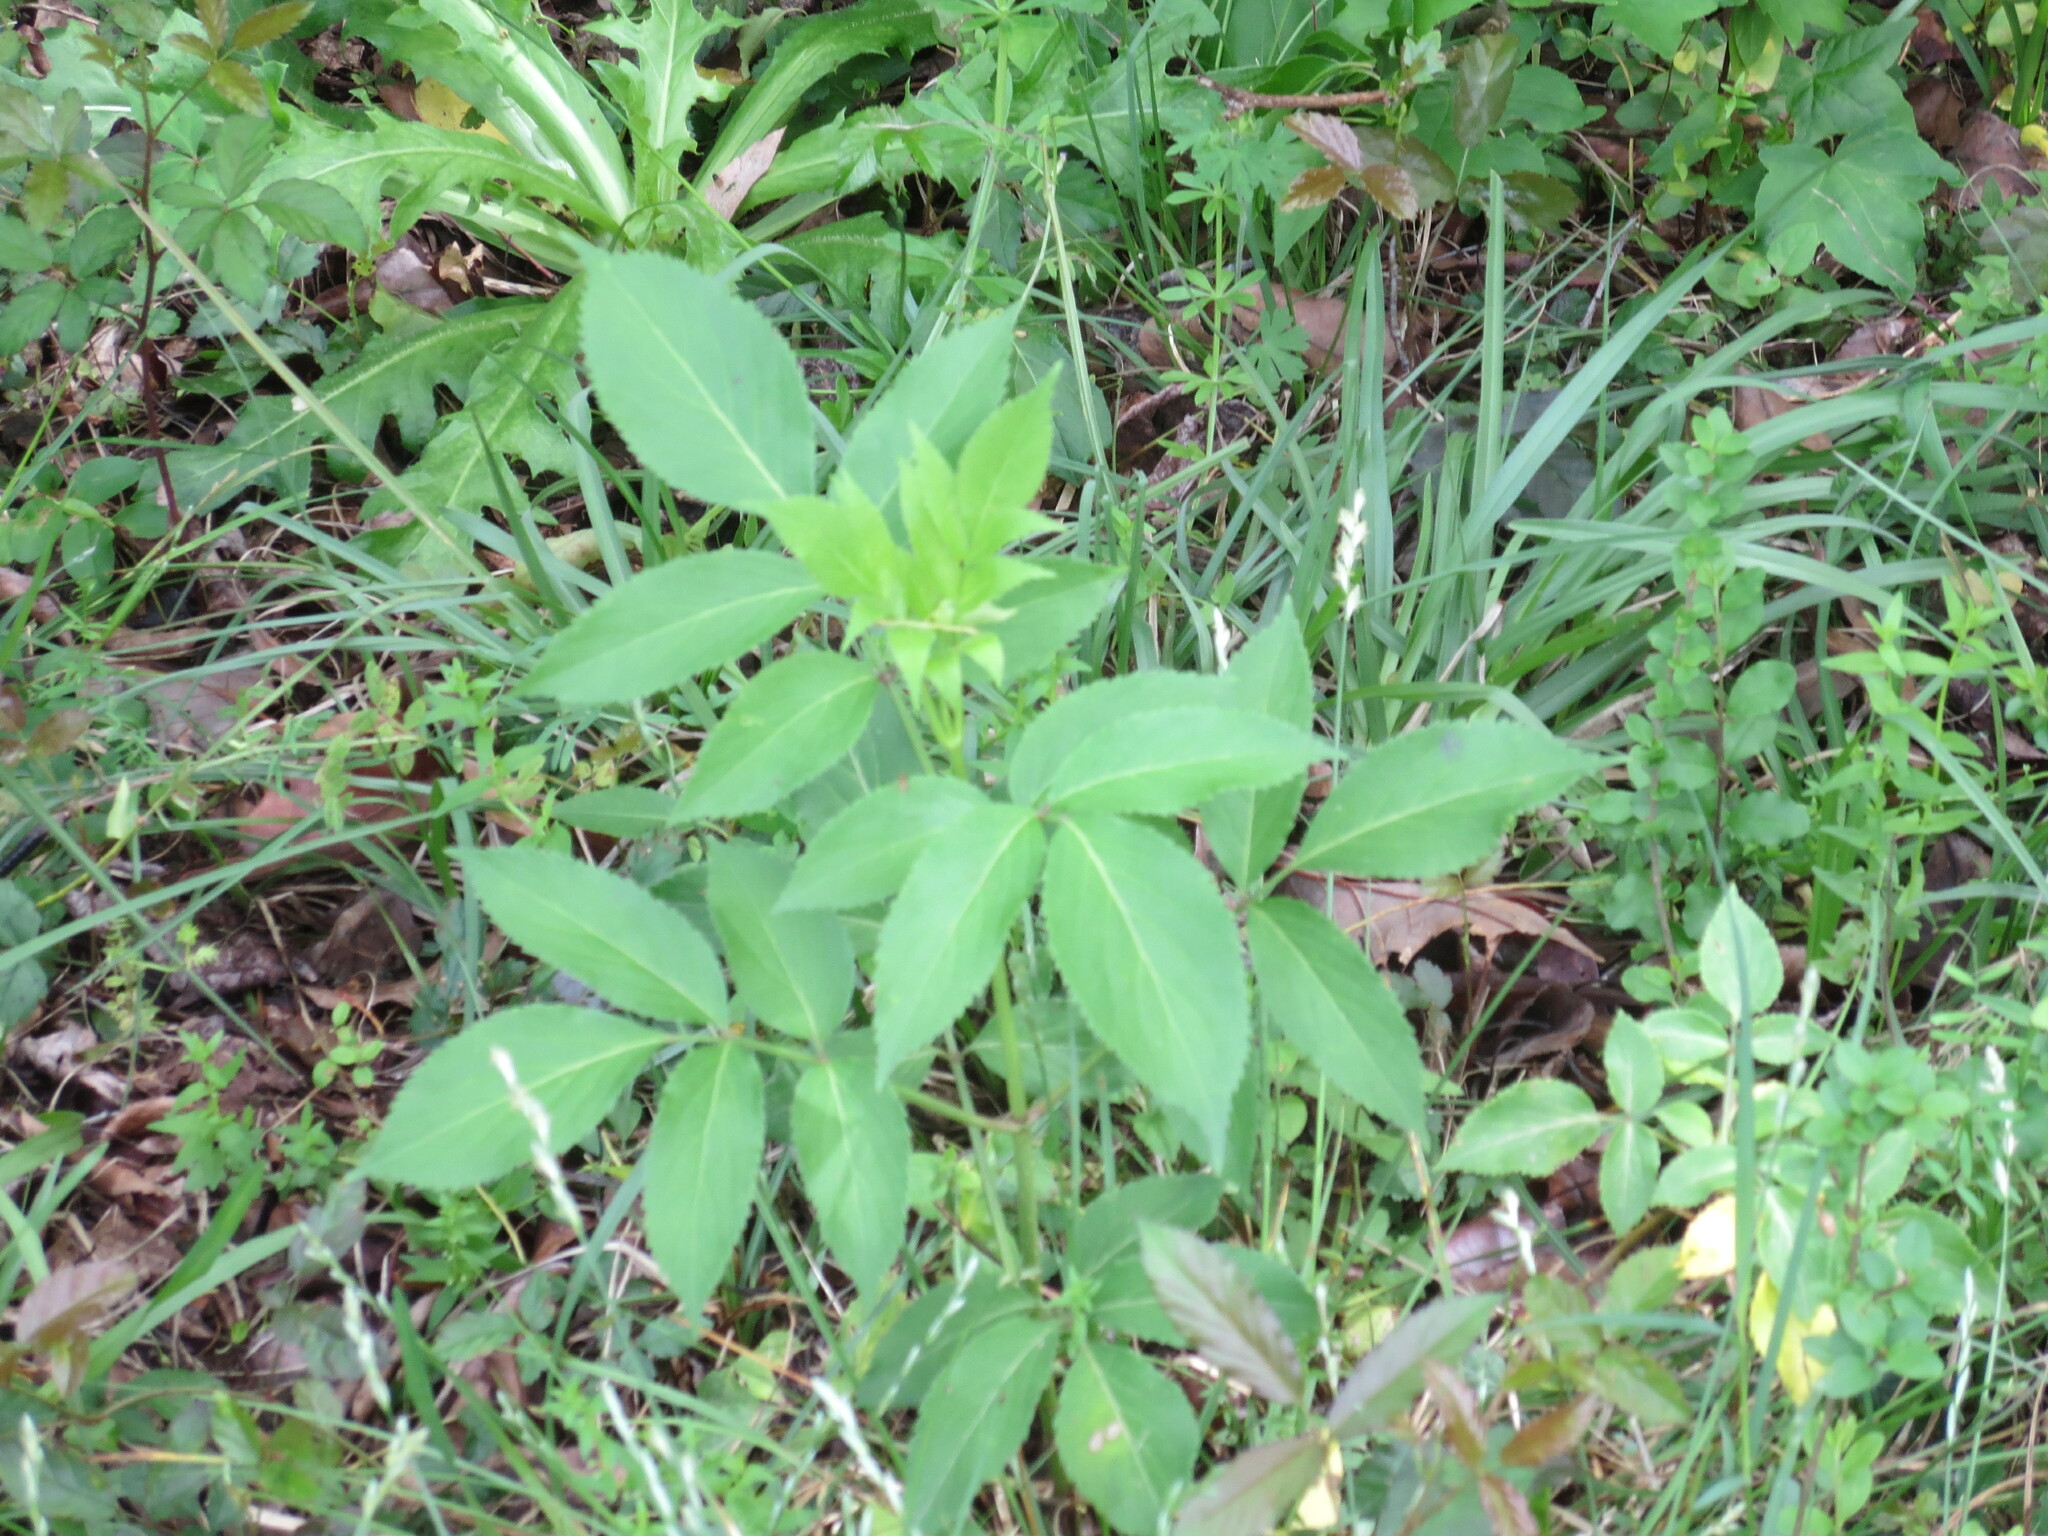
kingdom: Plantae
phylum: Tracheophyta
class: Magnoliopsida
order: Dipsacales
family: Viburnaceae
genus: Sambucus
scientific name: Sambucus canadensis
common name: American elder
